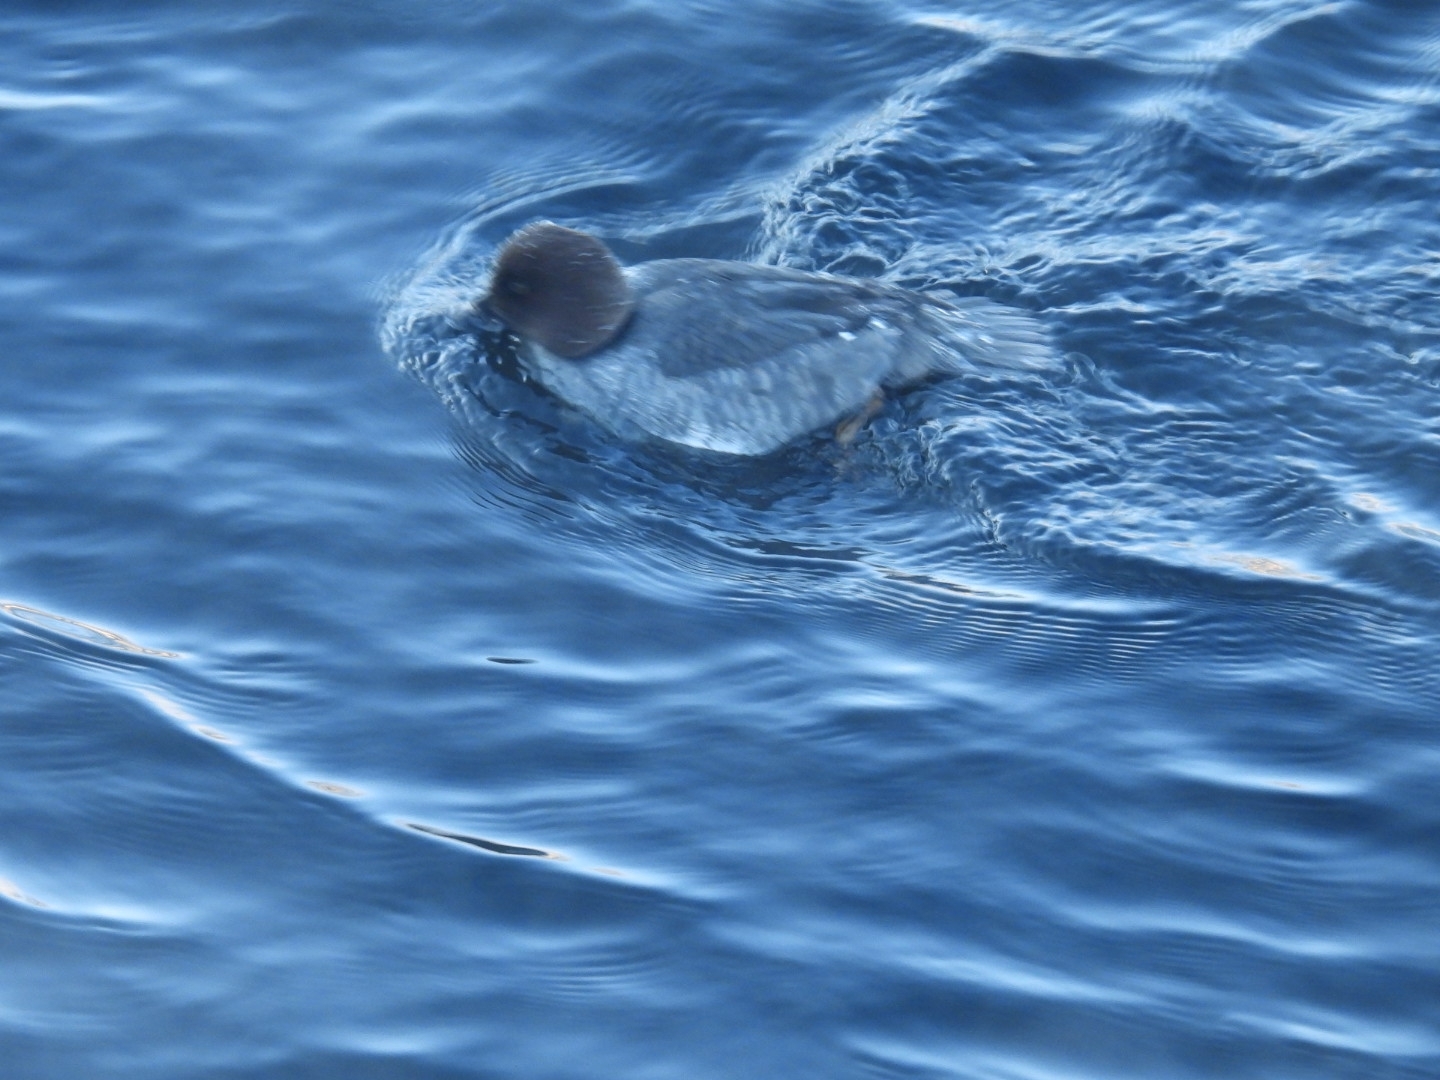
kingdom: Animalia
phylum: Chordata
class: Aves
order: Anseriformes
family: Anatidae
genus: Bucephala
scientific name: Bucephala clangula
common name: Common goldeneye
